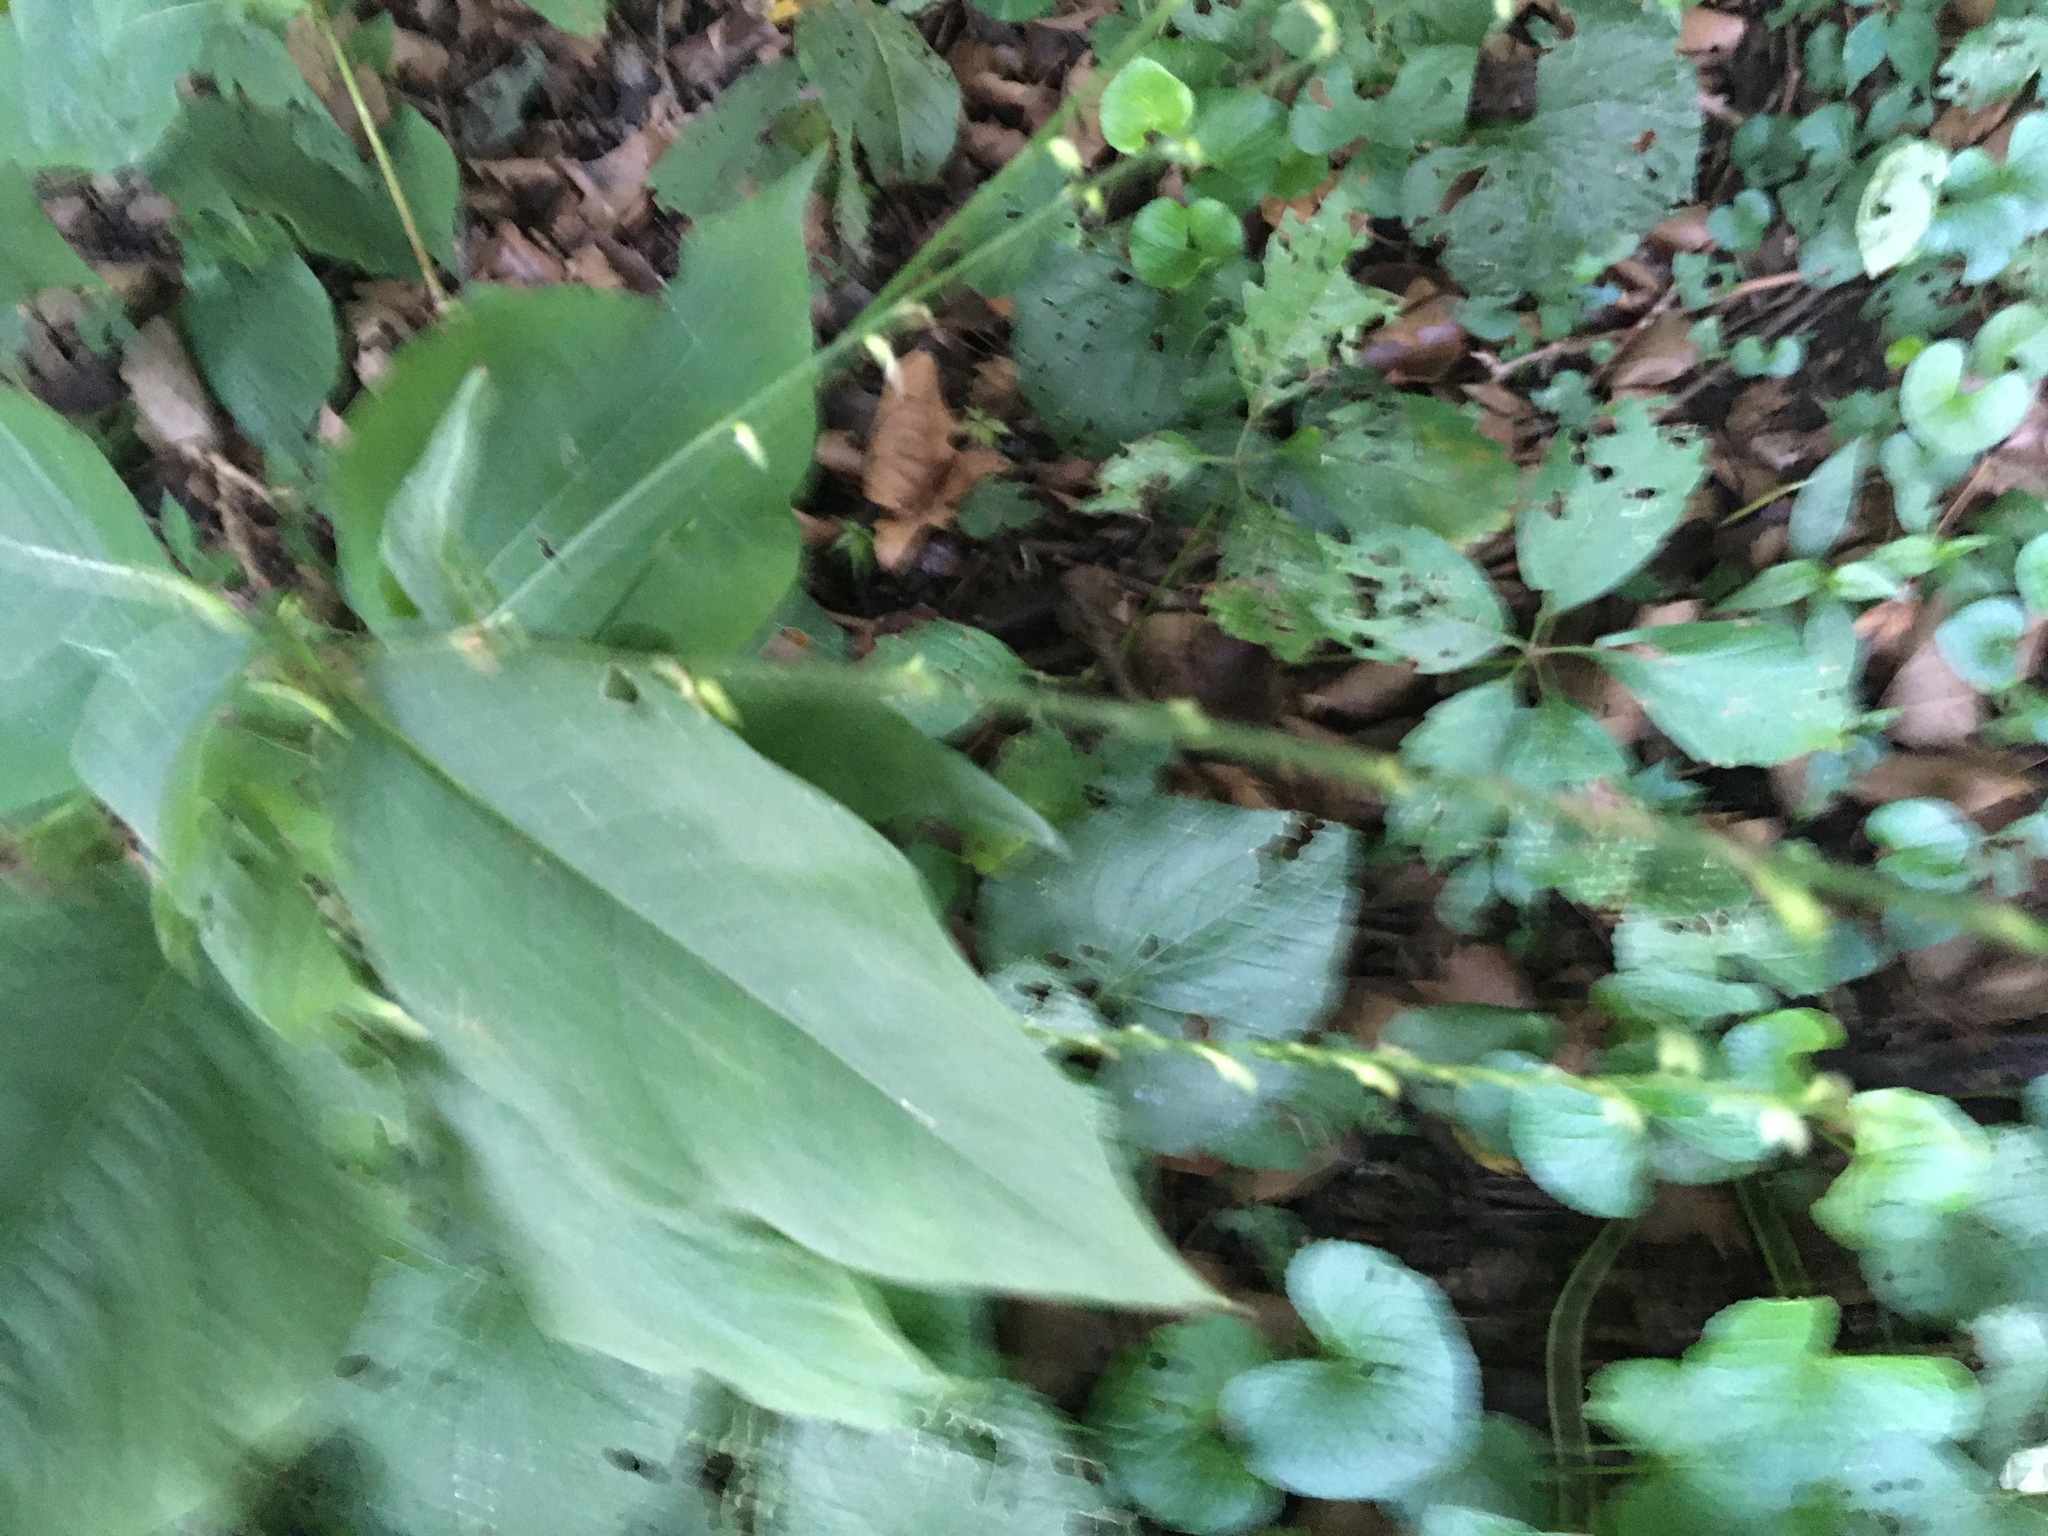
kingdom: Plantae
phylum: Tracheophyta
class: Magnoliopsida
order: Caryophyllales
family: Polygonaceae
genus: Persicaria
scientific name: Persicaria virginiana
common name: Jumpseed
